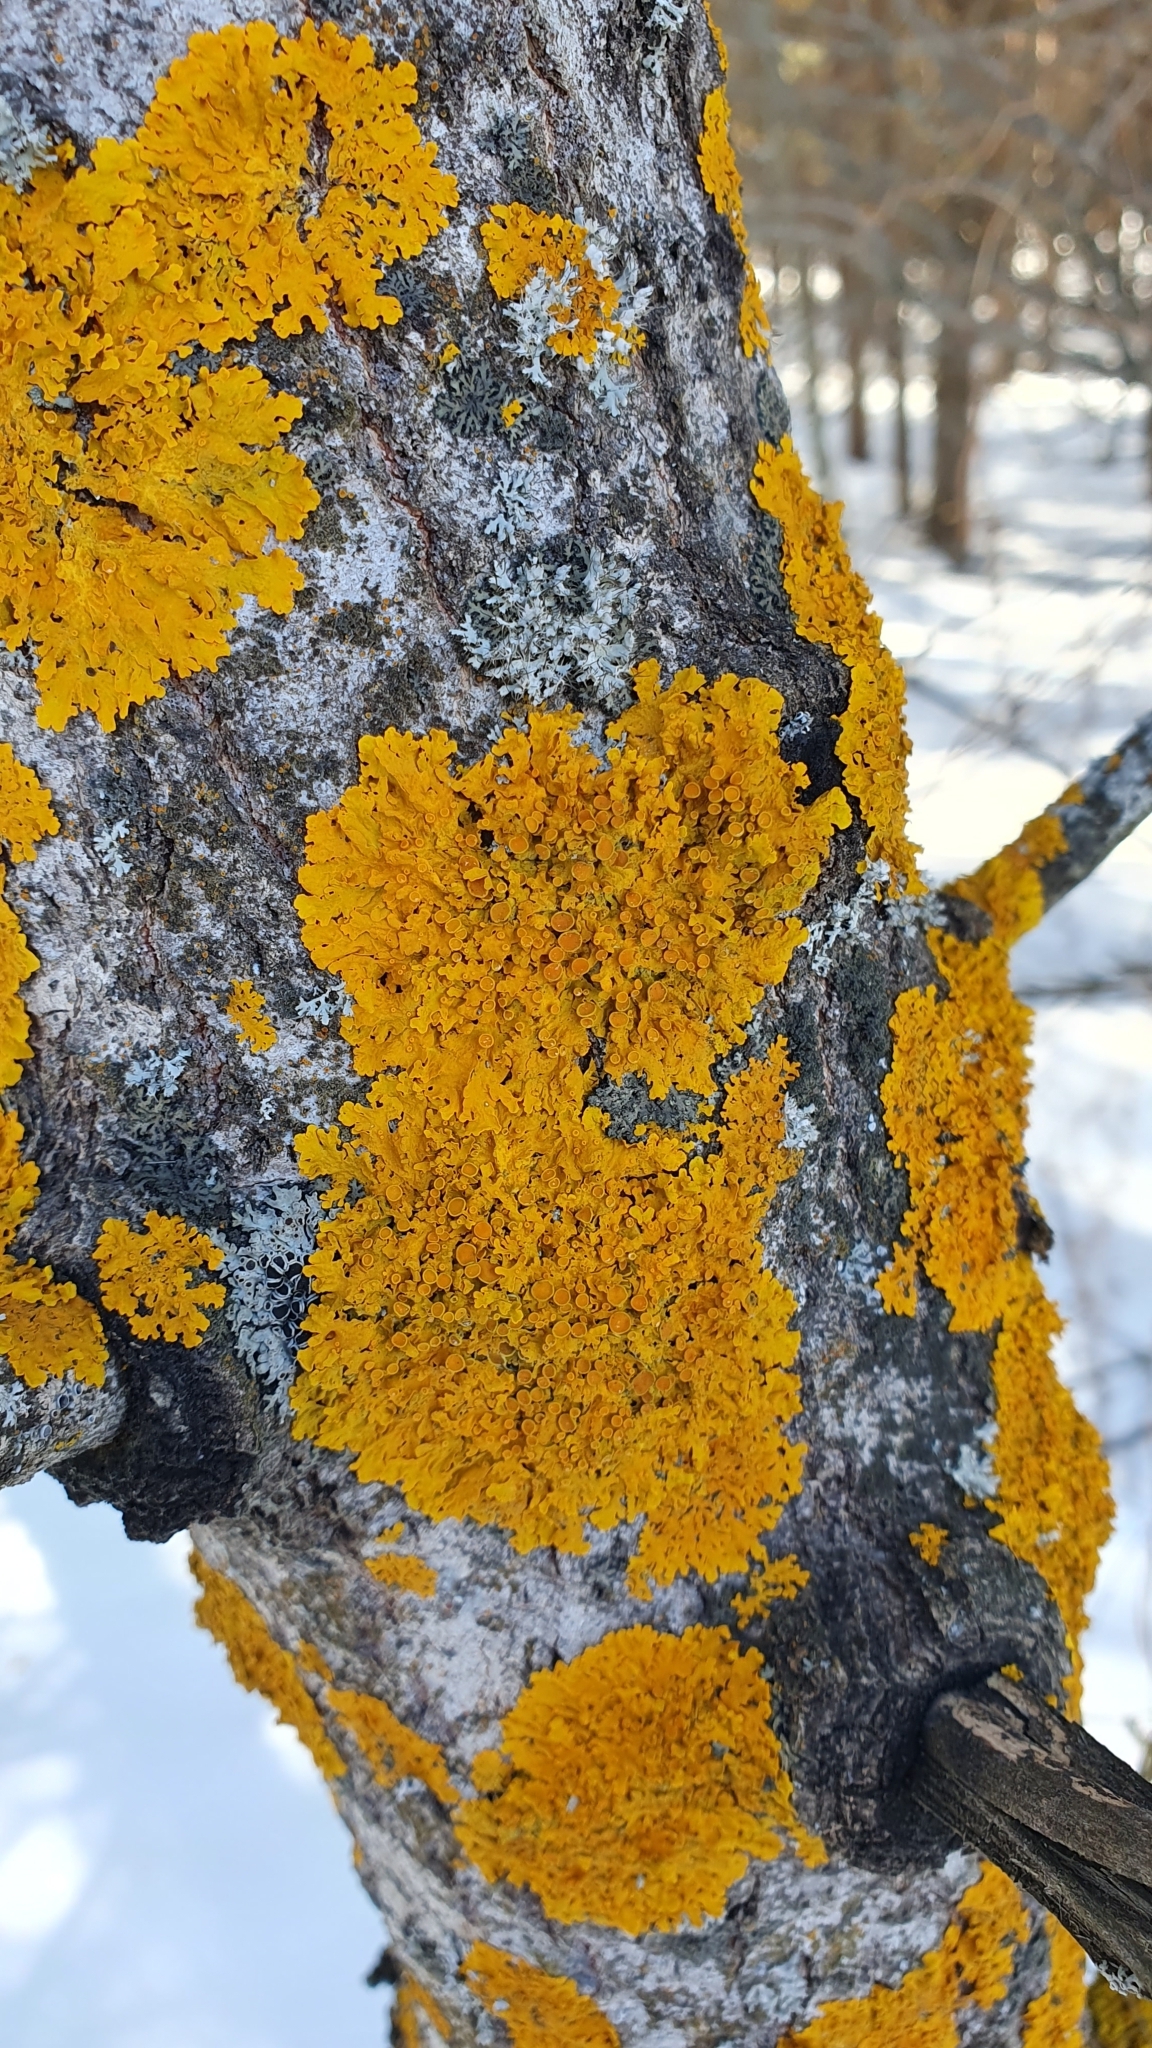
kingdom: Fungi
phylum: Ascomycota
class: Lecanoromycetes
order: Teloschistales
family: Teloschistaceae
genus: Xanthoria
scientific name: Xanthoria parietina
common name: Common orange lichen
